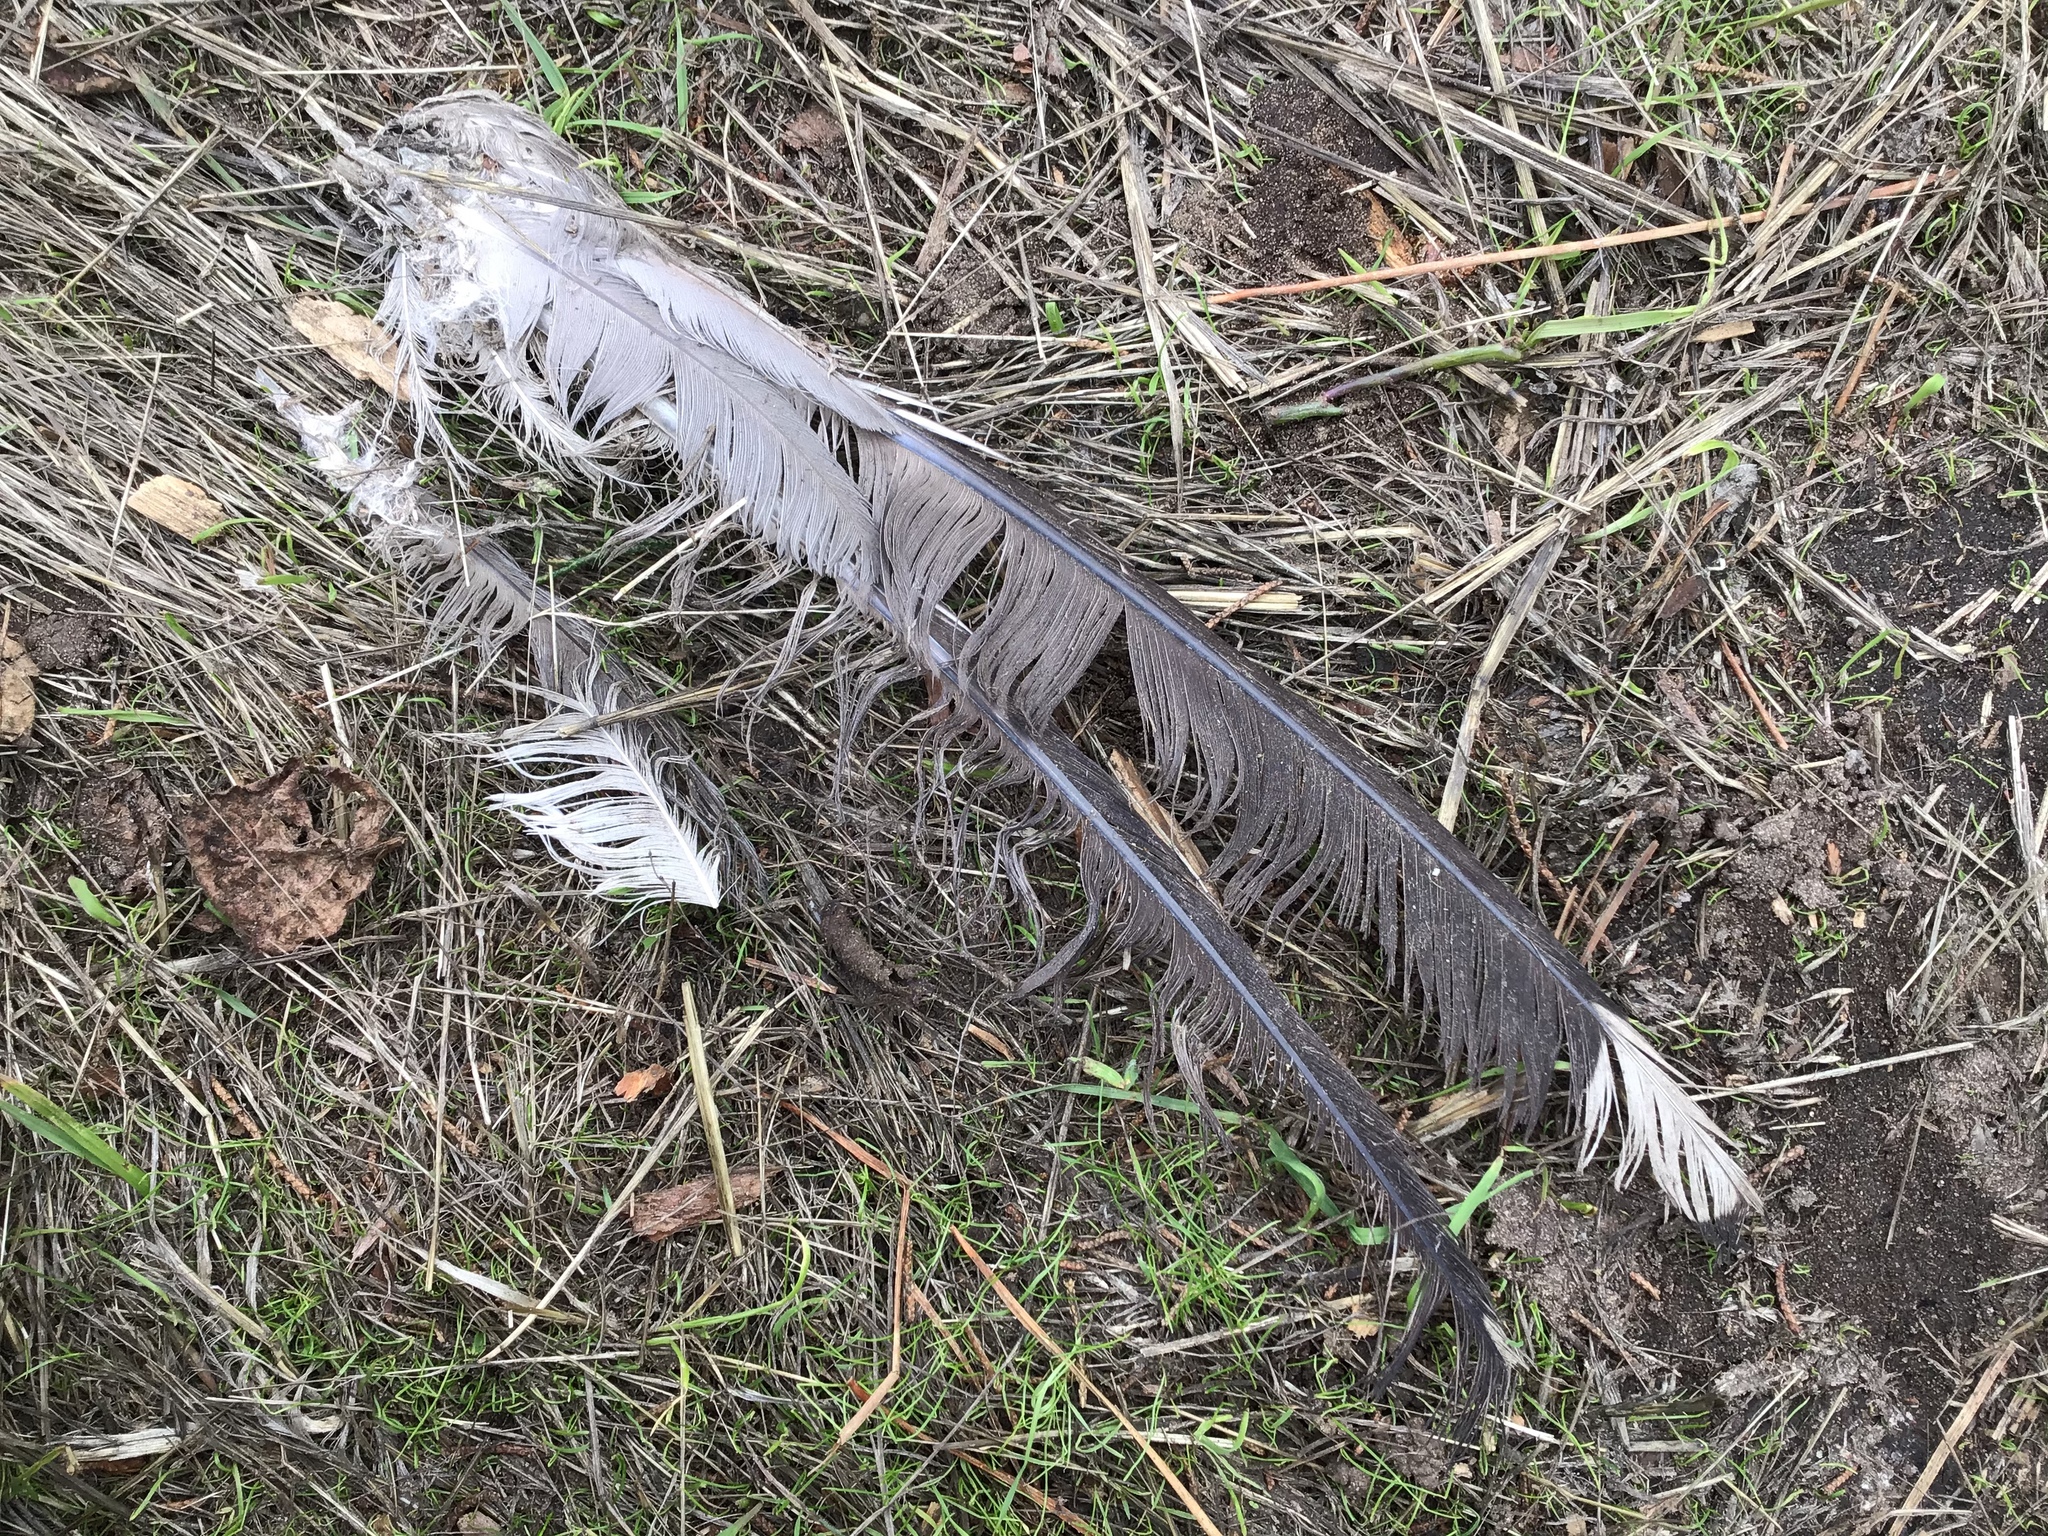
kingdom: Animalia
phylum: Chordata
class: Aves
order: Charadriiformes
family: Laridae
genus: Larus
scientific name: Larus californicus
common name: California gull
